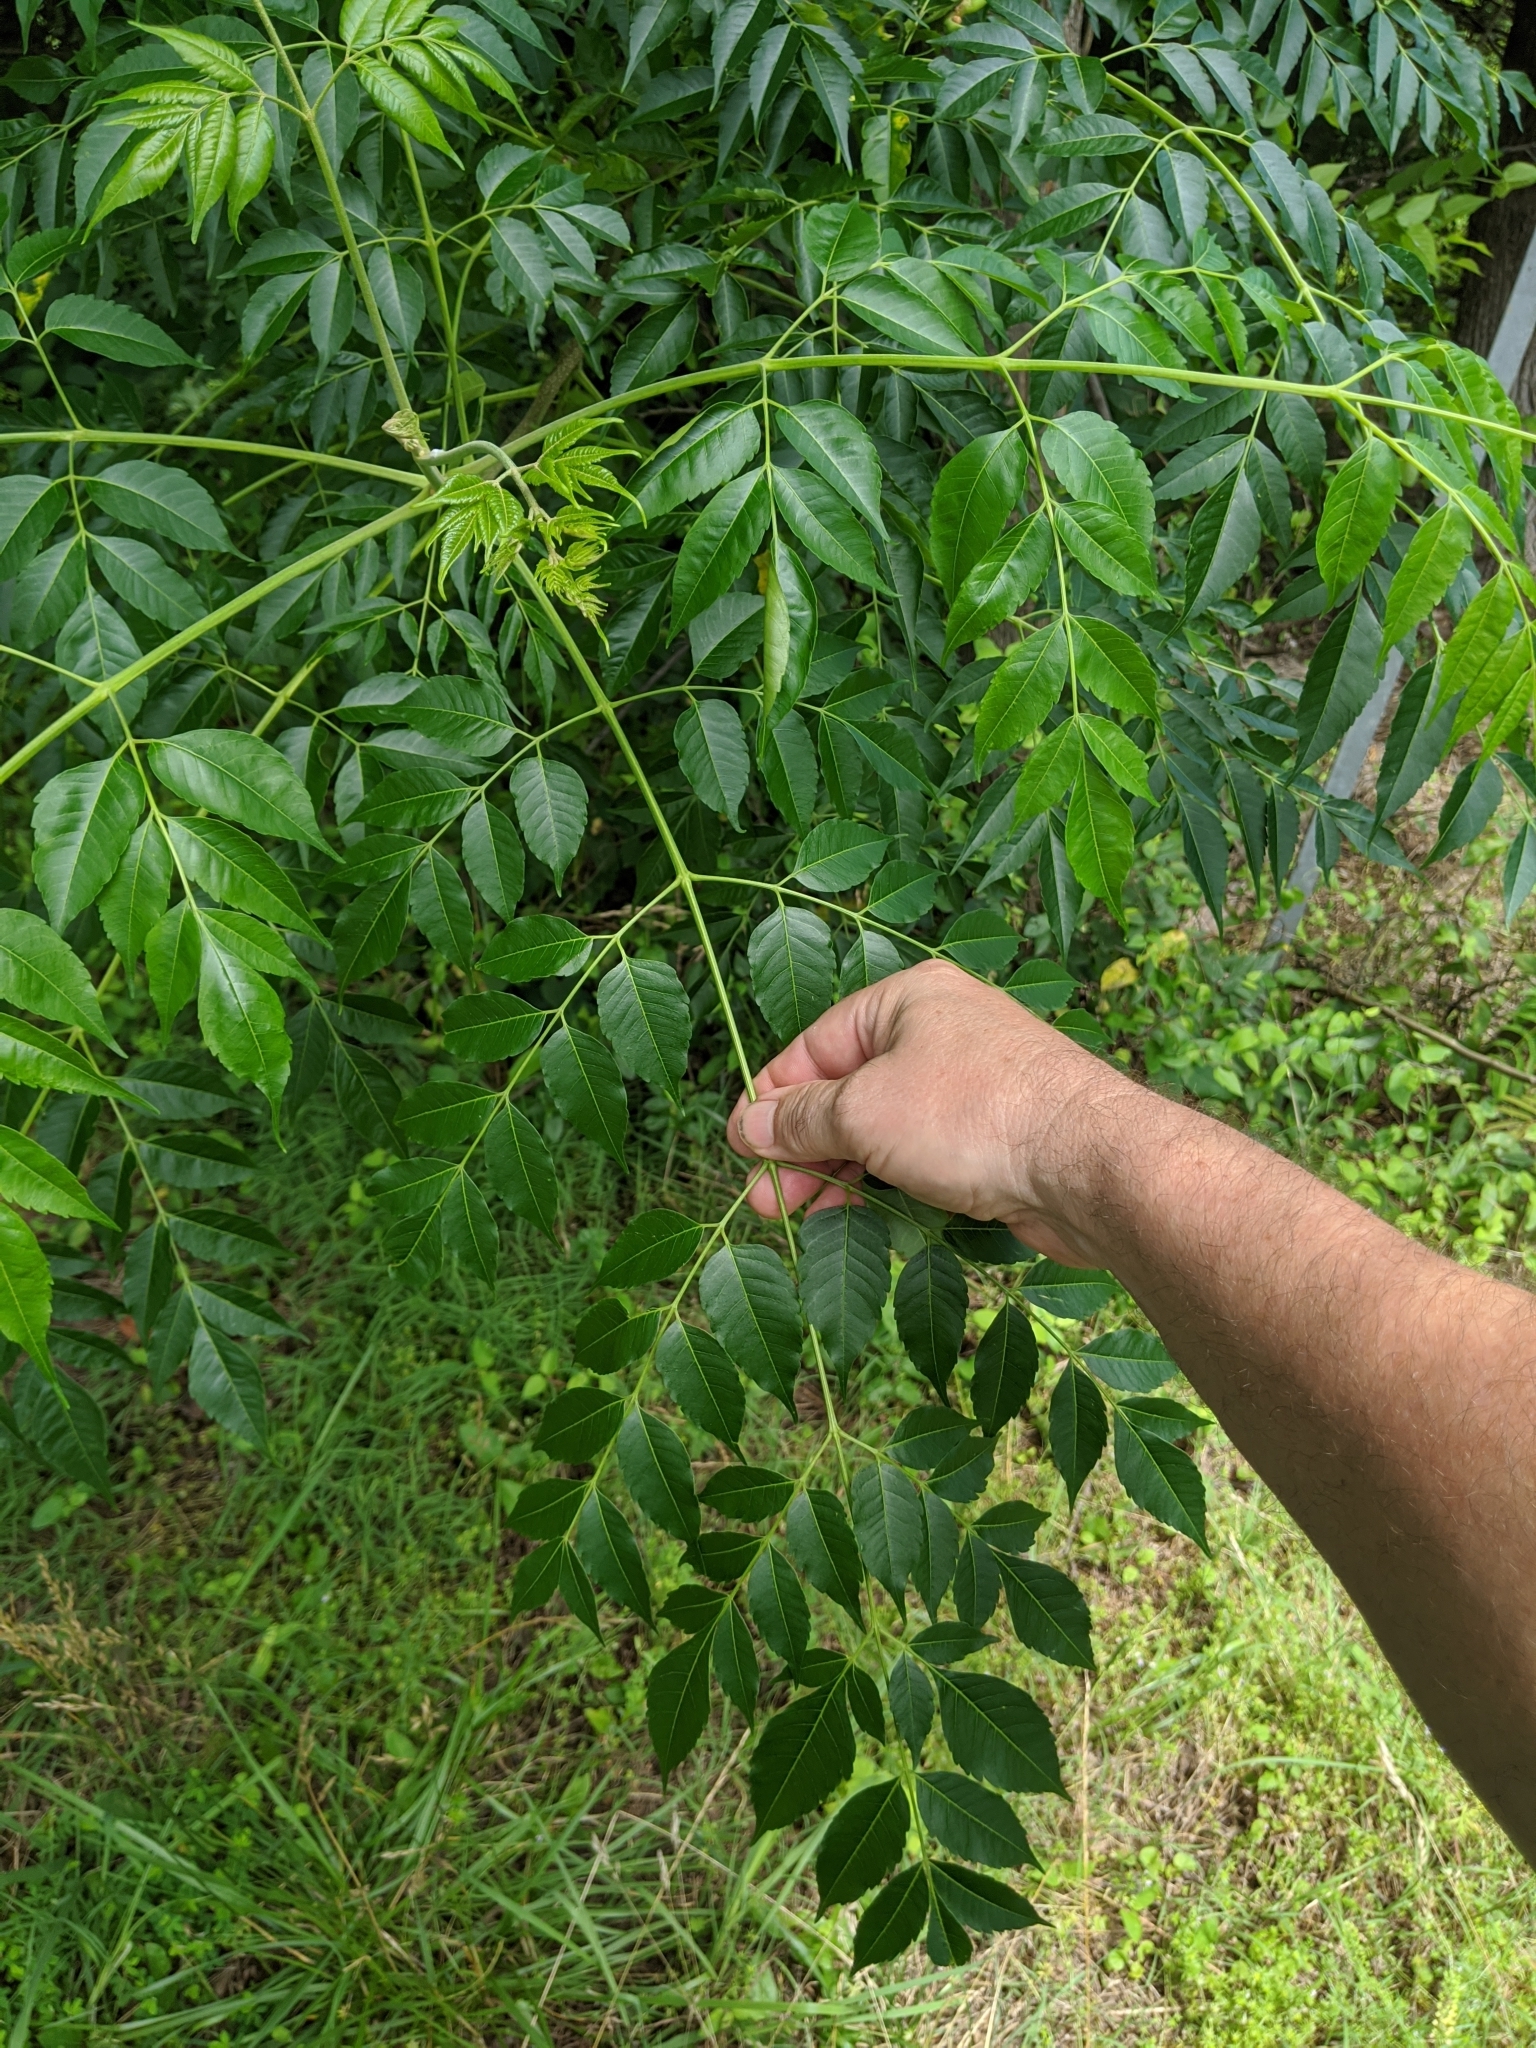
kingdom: Plantae
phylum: Tracheophyta
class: Magnoliopsida
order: Sapindales
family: Meliaceae
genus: Melia
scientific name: Melia azedarach
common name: Chinaberrytree
